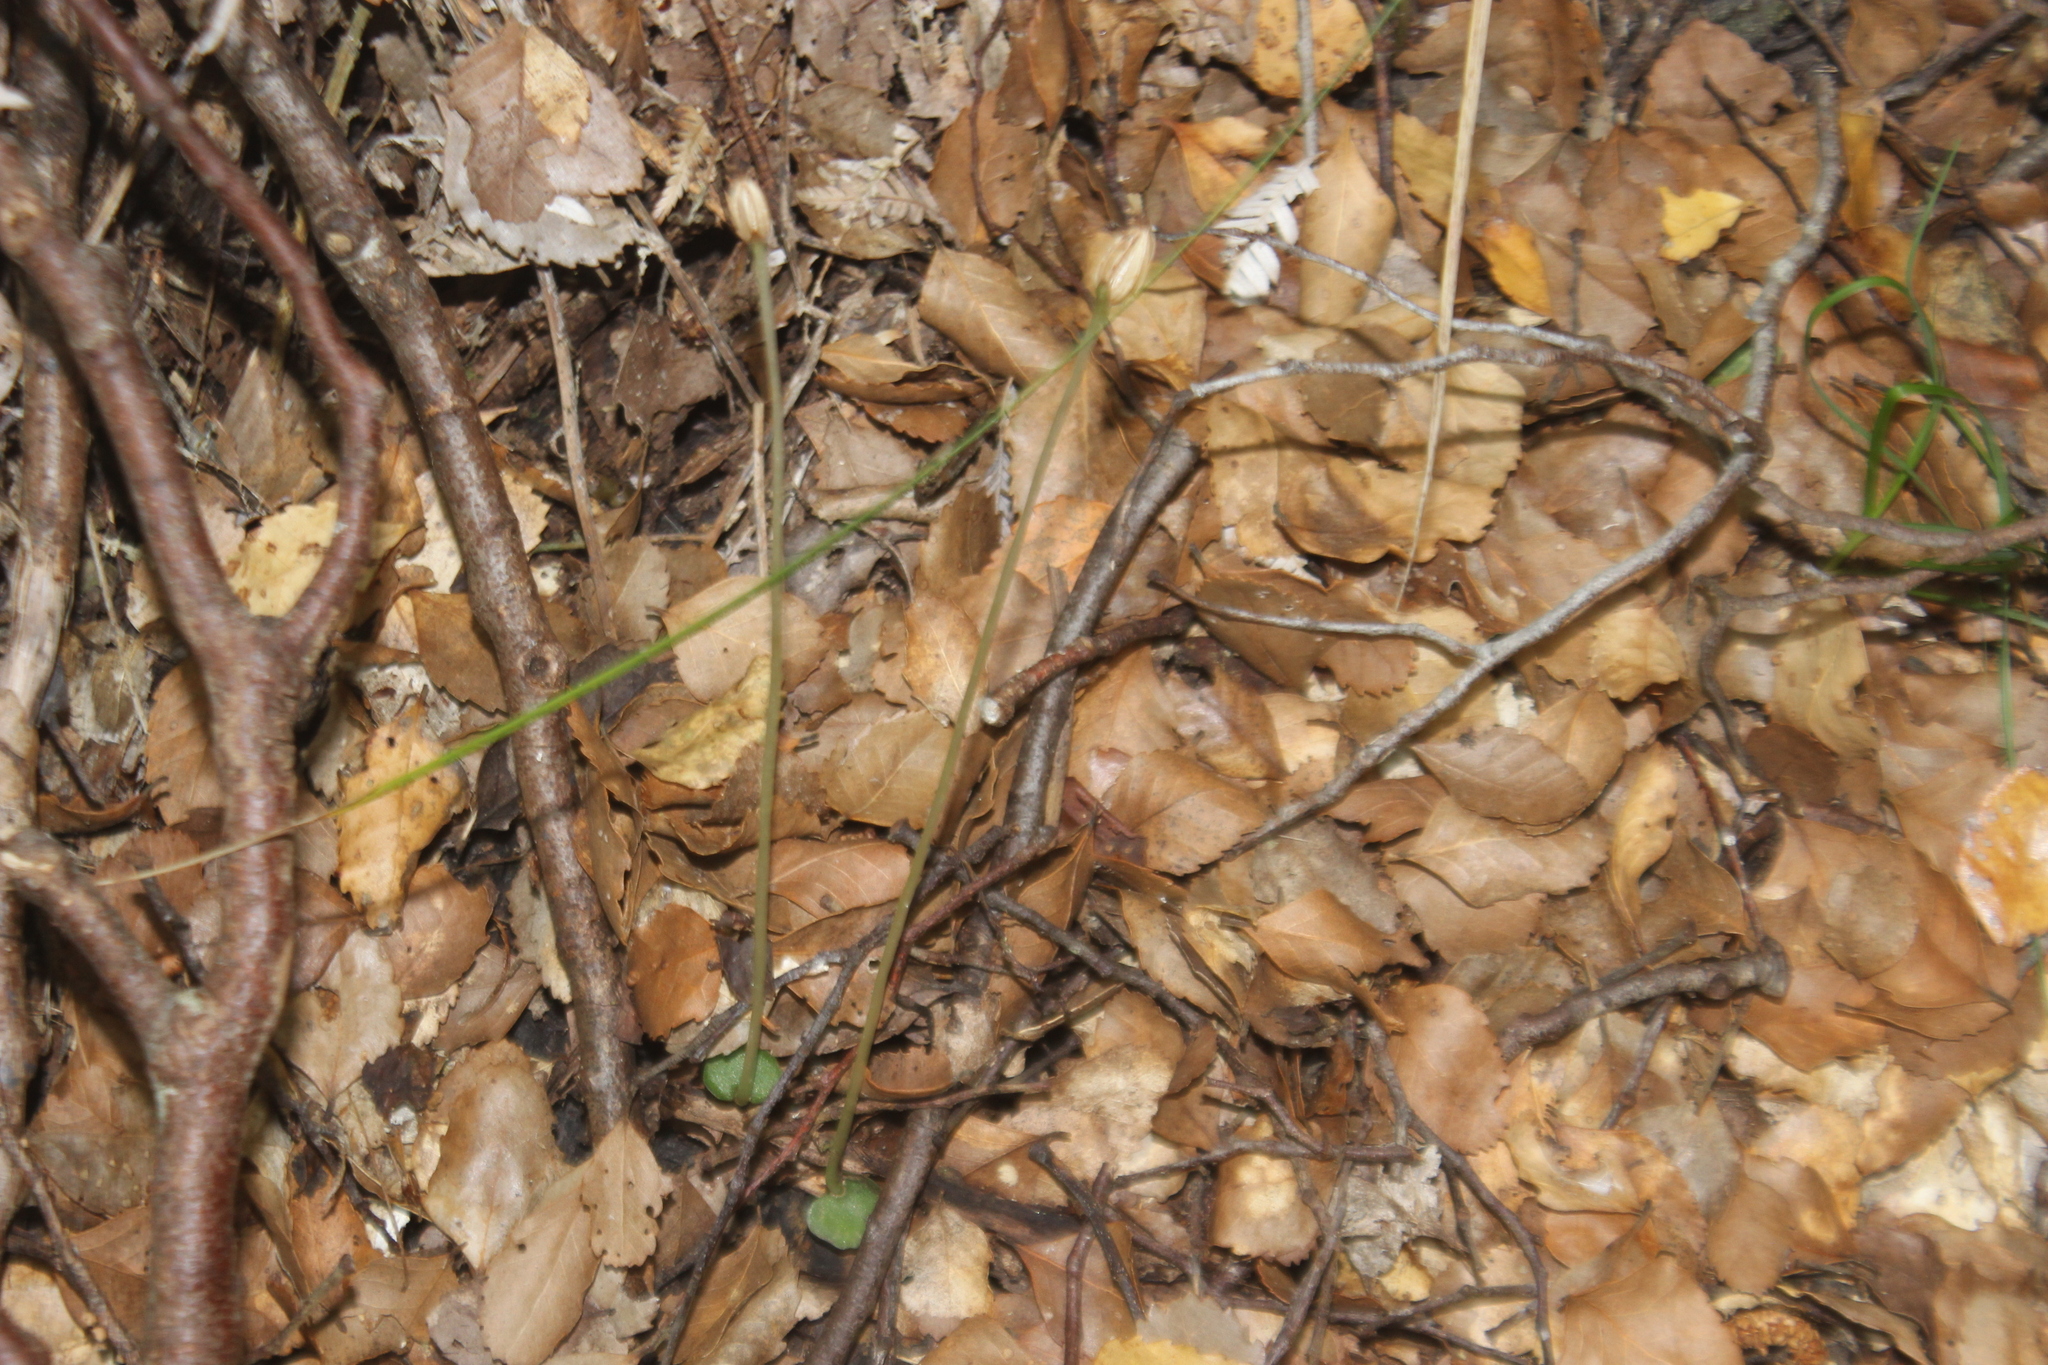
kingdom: Plantae
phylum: Tracheophyta
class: Liliopsida
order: Asparagales
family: Orchidaceae
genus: Corybas
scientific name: Corybas cheesemanii
